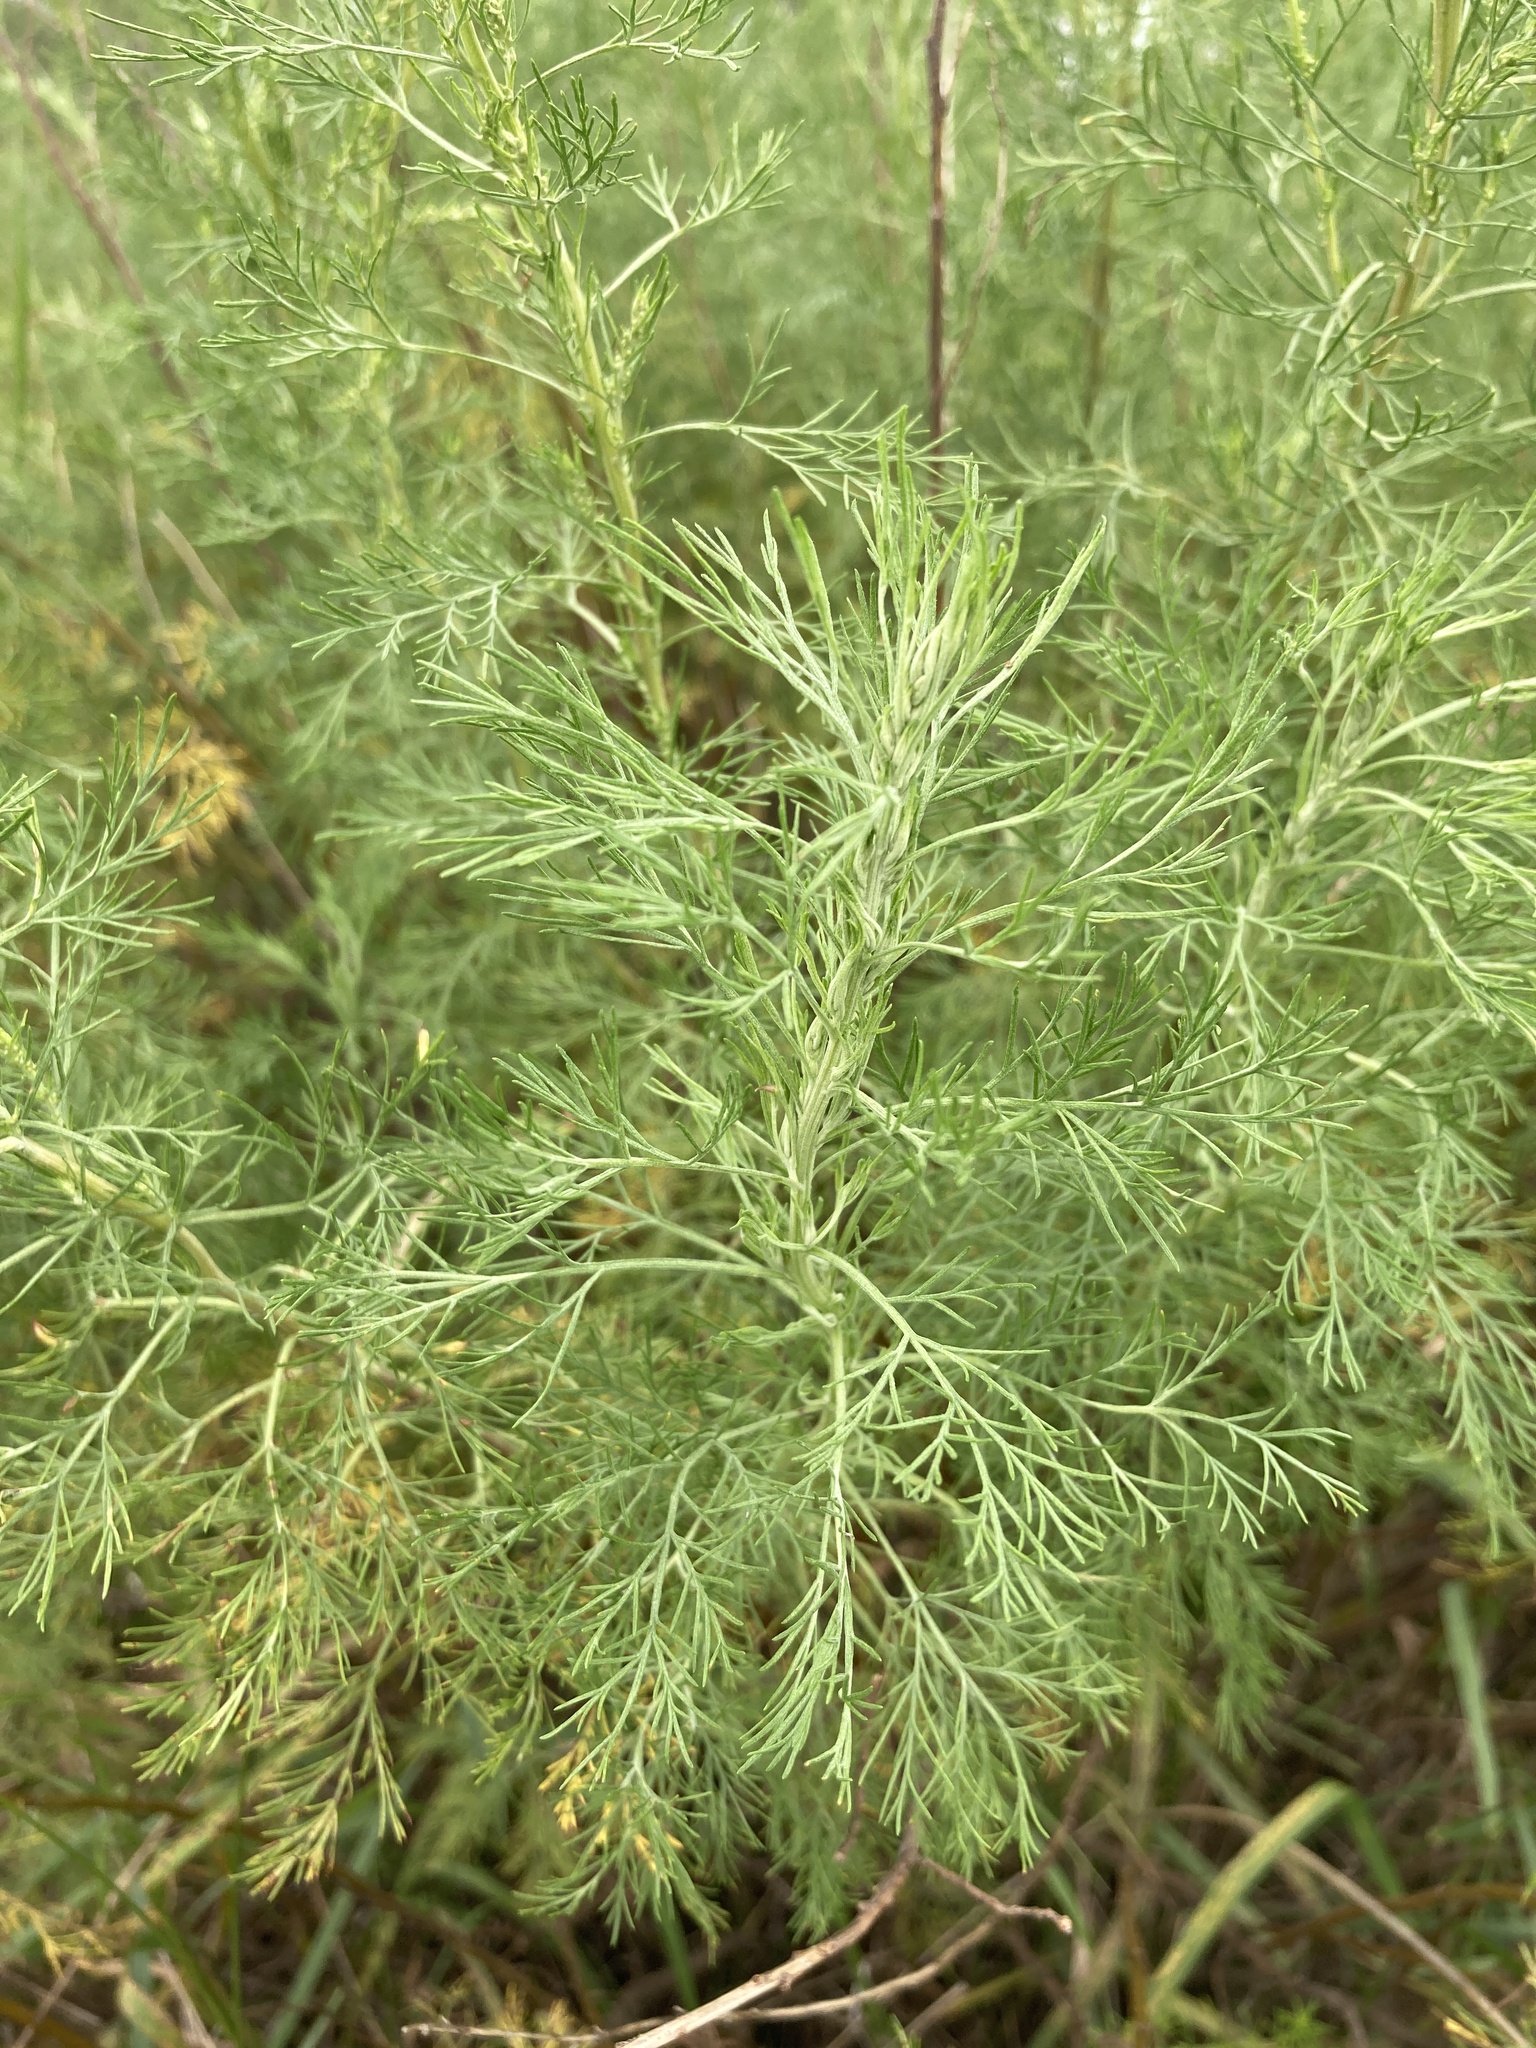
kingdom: Plantae
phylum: Tracheophyta
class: Magnoliopsida
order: Asterales
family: Asteraceae
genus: Artemisia
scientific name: Artemisia abrotanum
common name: Southernwood
